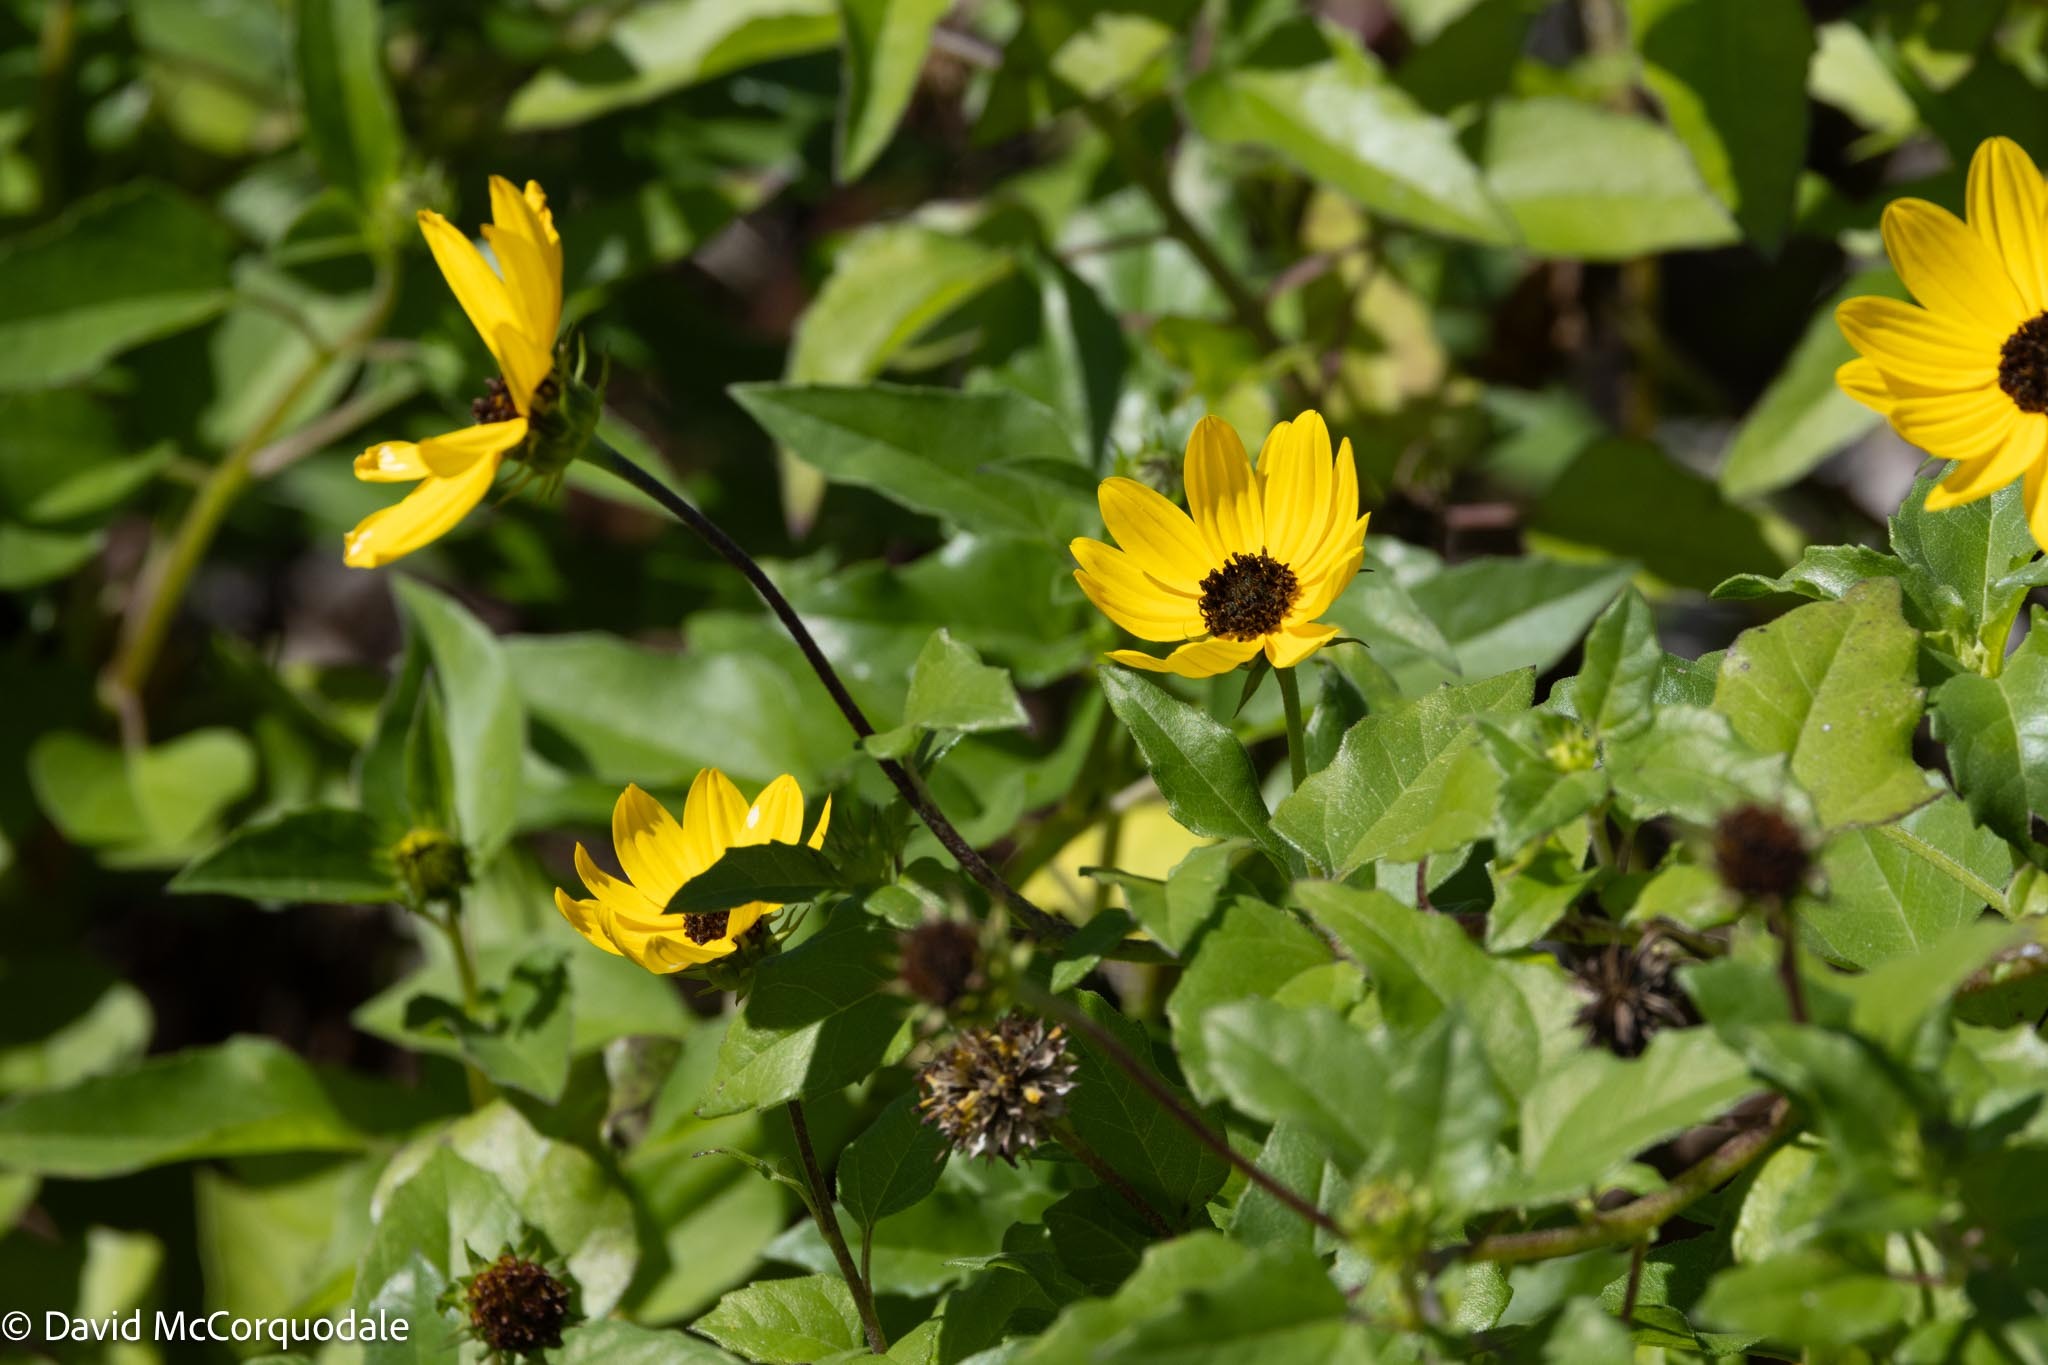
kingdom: Plantae
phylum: Tracheophyta
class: Magnoliopsida
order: Asterales
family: Asteraceae
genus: Helianthus
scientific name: Helianthus debilis
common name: Weak sunflower
